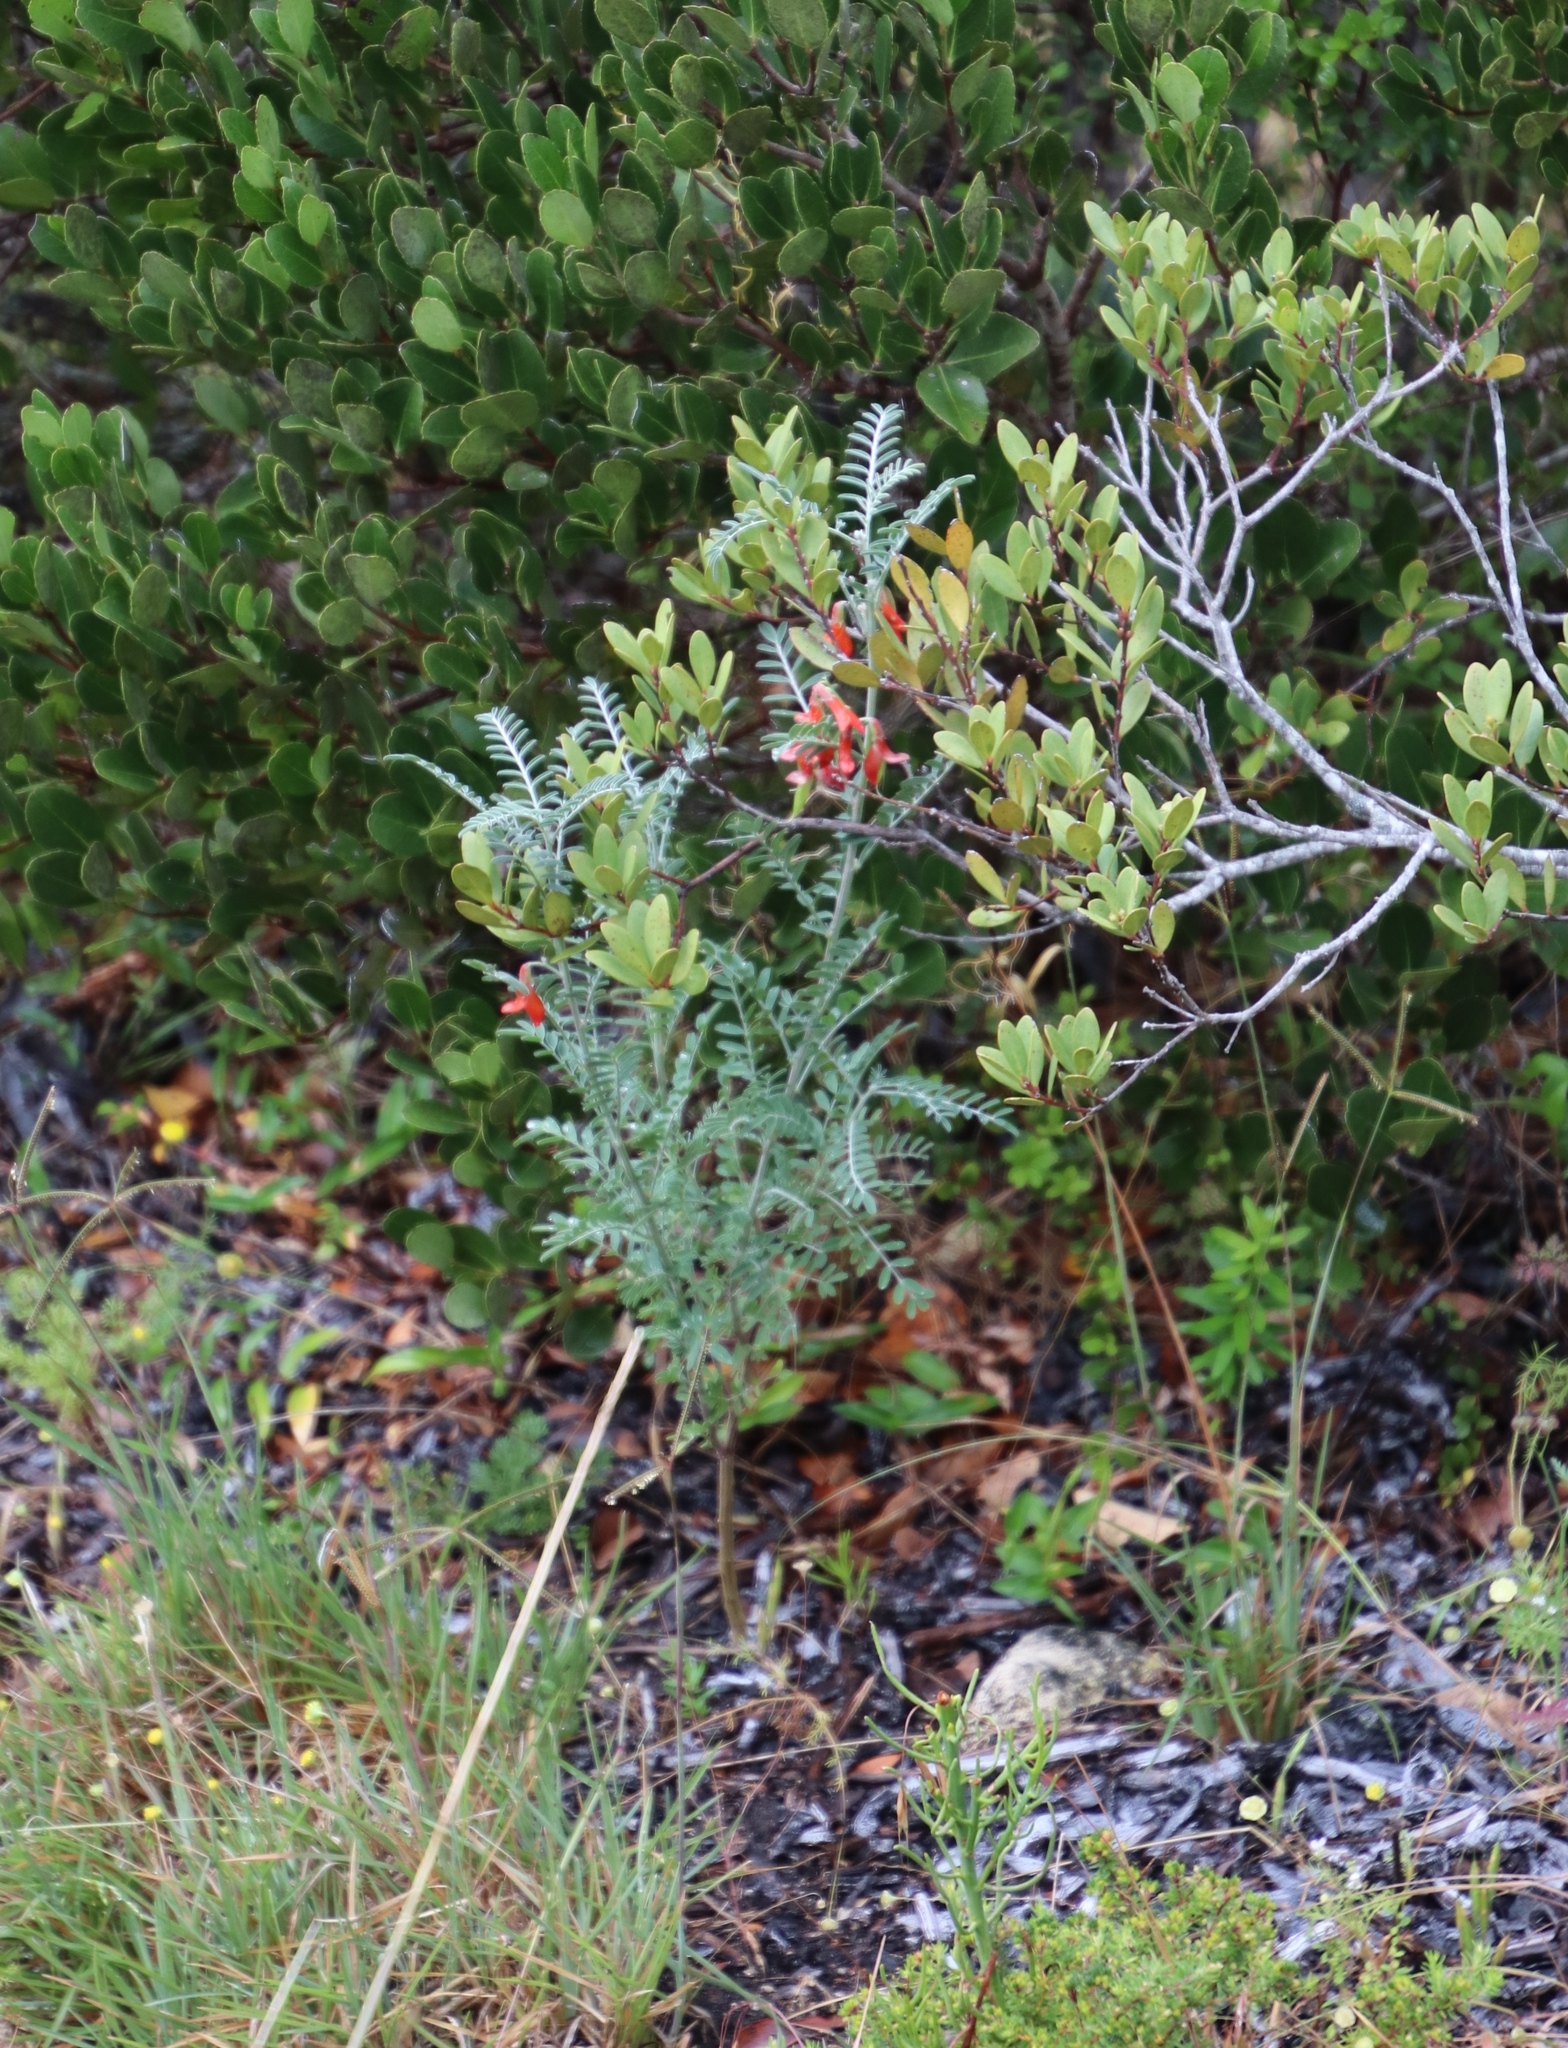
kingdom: Plantae
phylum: Tracheophyta
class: Magnoliopsida
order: Fabales
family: Fabaceae
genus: Lessertia
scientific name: Lessertia frutescens
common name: Balloon-pea
